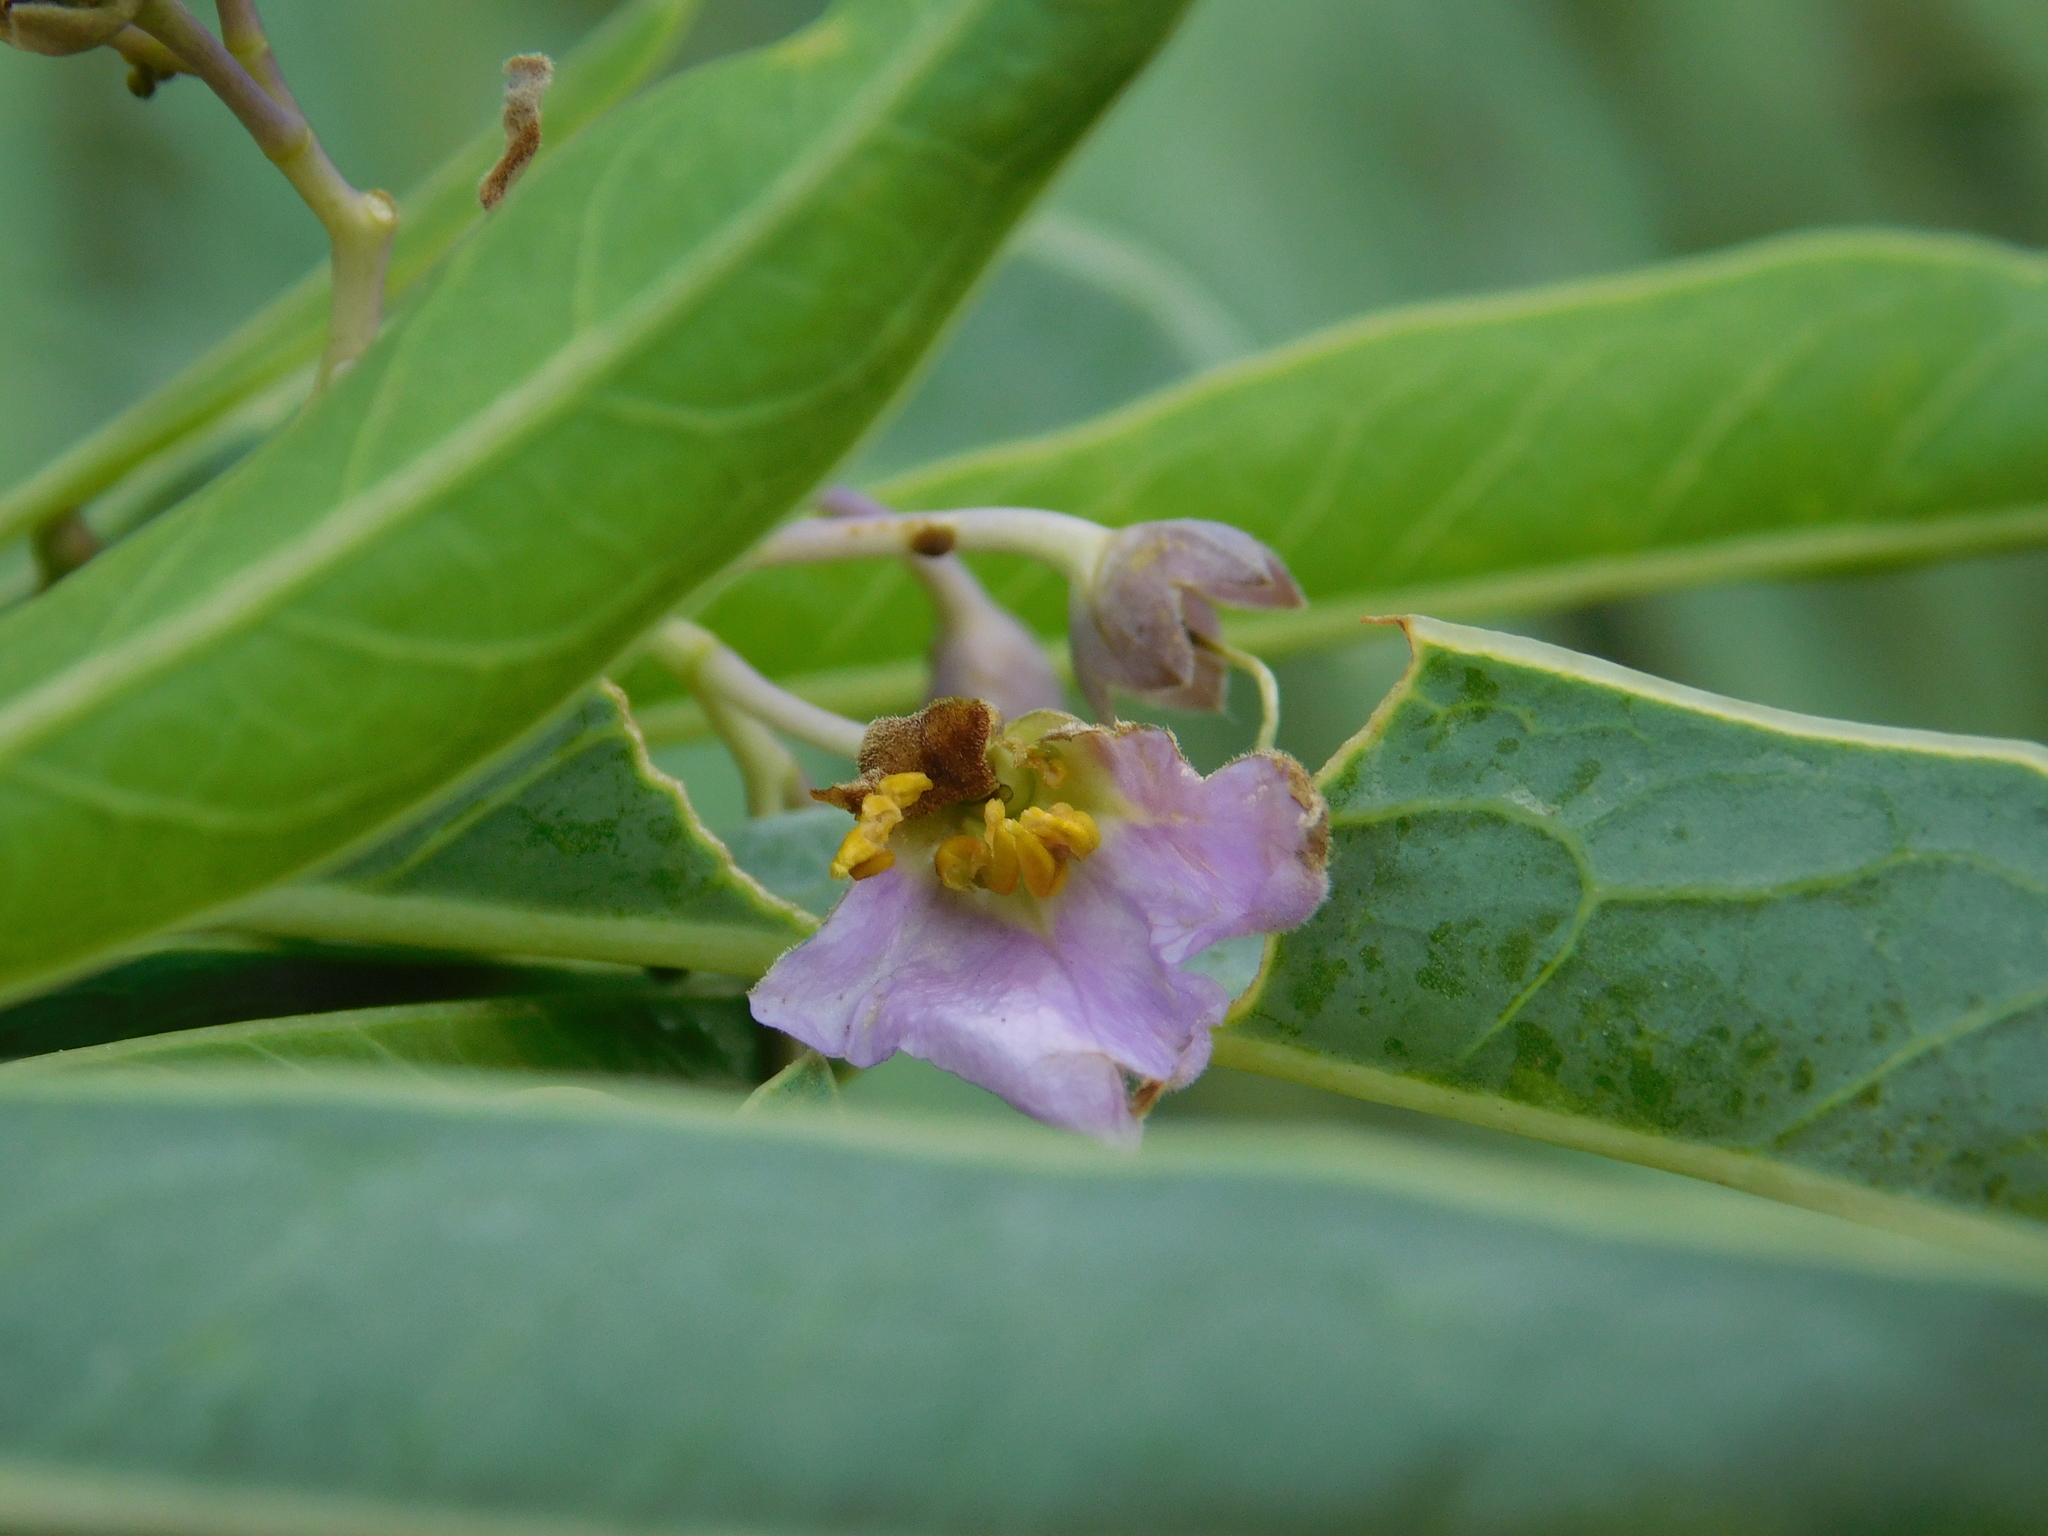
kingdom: Plantae
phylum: Tracheophyta
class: Magnoliopsida
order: Solanales
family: Solanaceae
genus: Solanum
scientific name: Solanum glaucophyllum
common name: Waxyleaf nightshade
